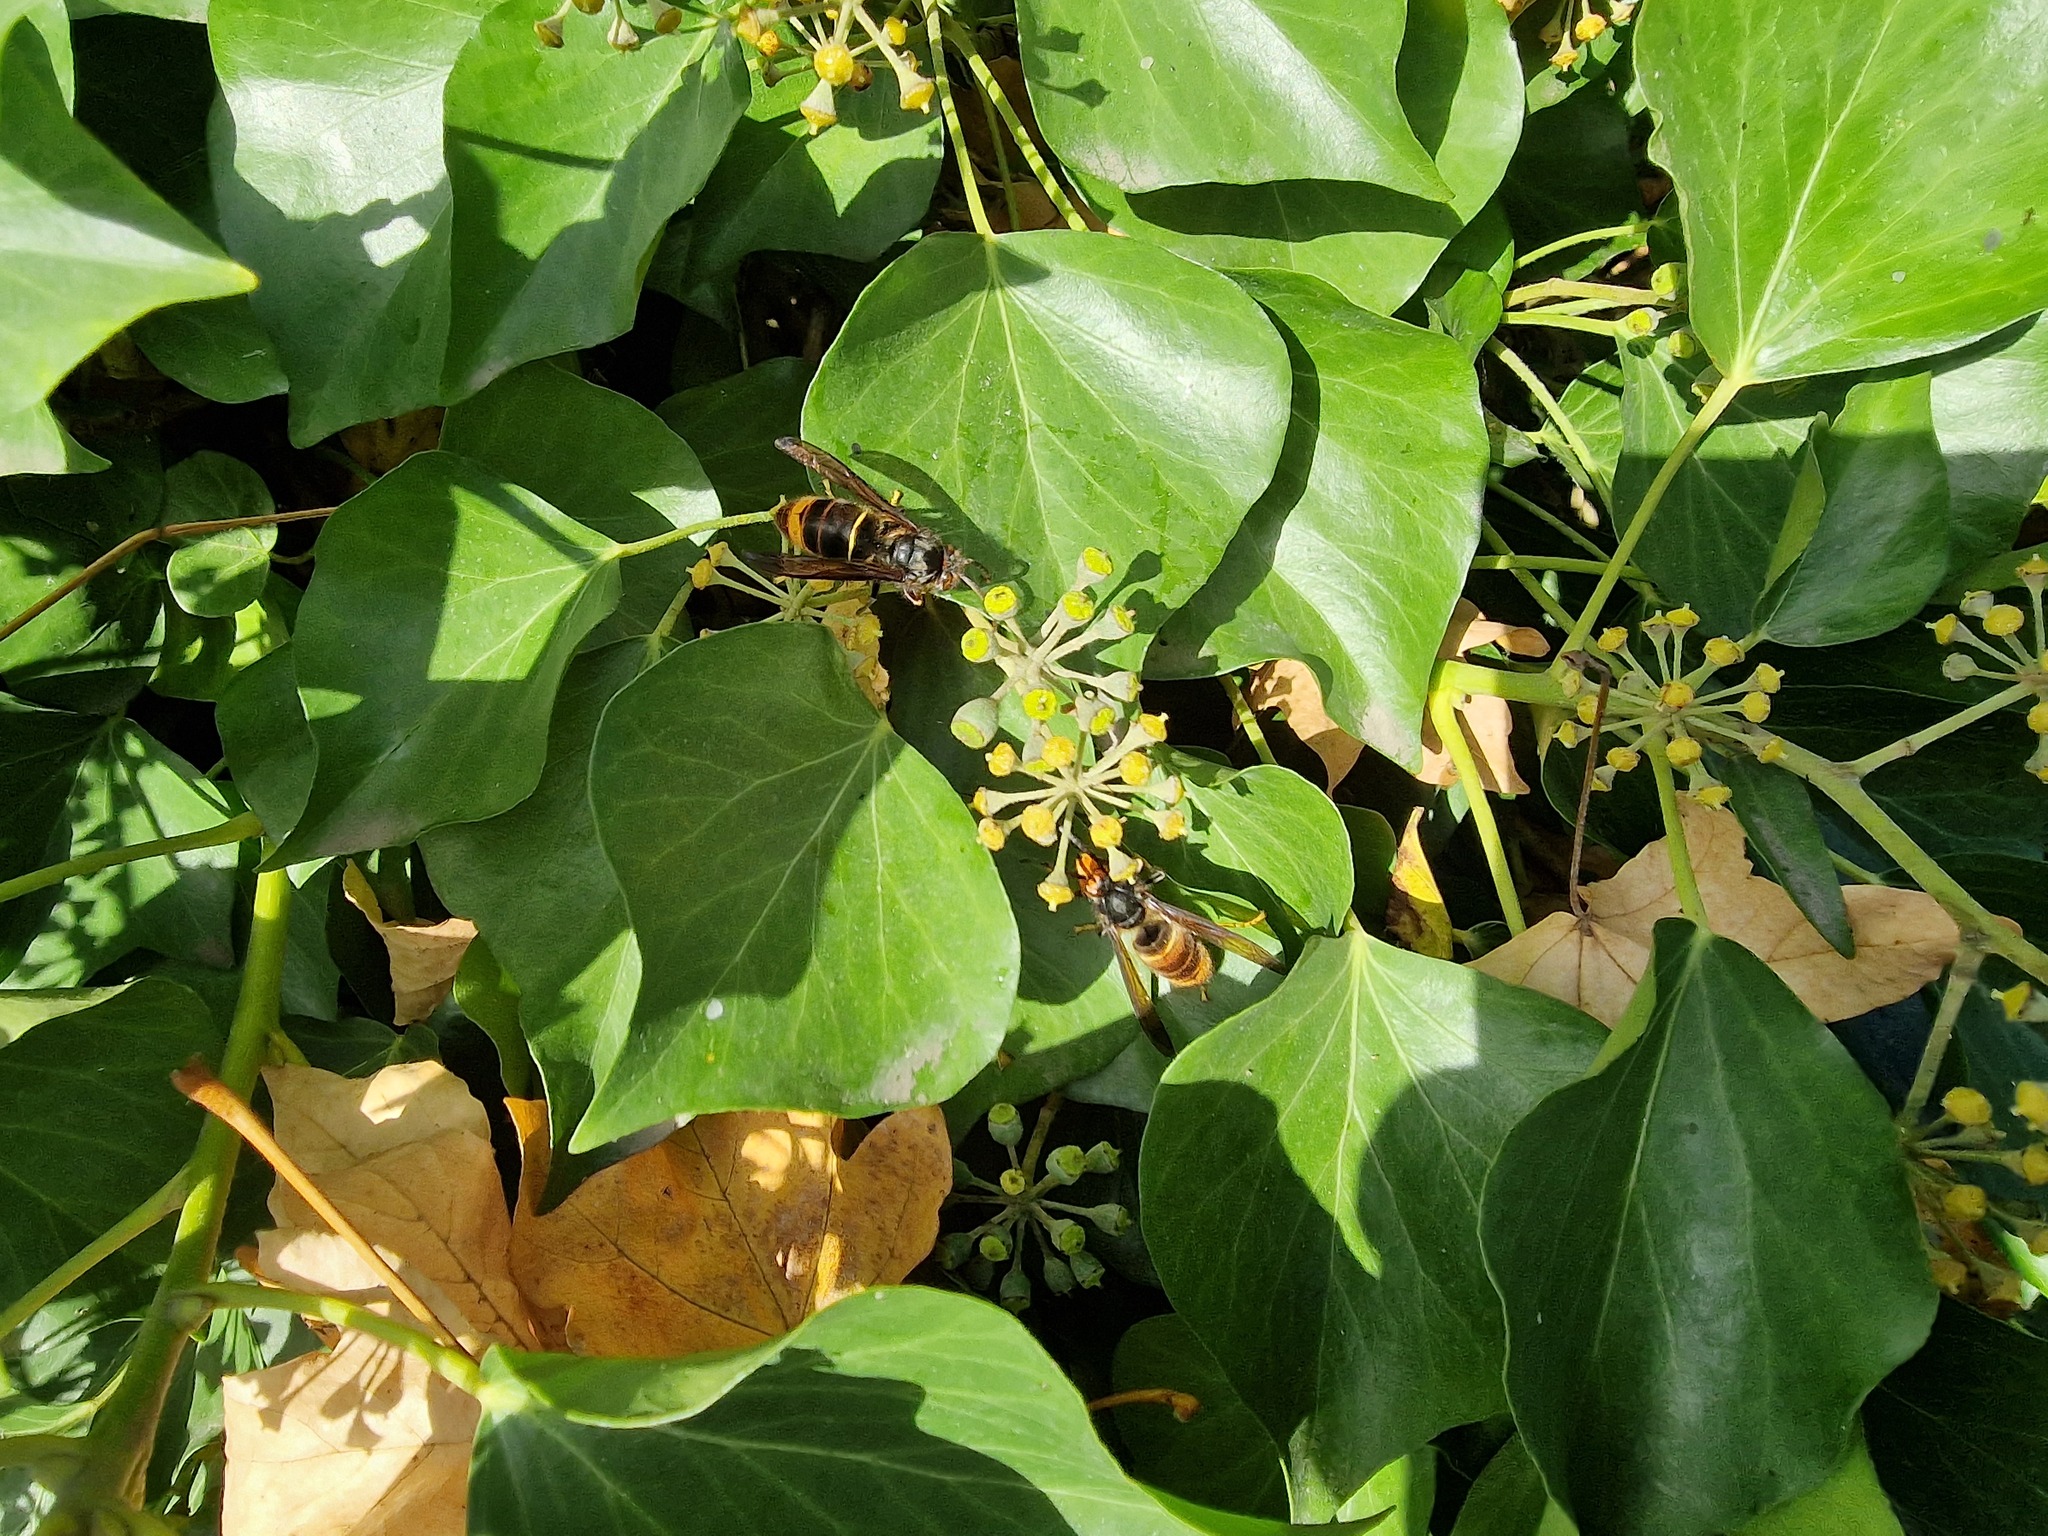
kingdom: Animalia
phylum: Arthropoda
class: Insecta
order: Hymenoptera
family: Vespidae
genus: Vespa
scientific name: Vespa velutina
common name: Asian hornet
